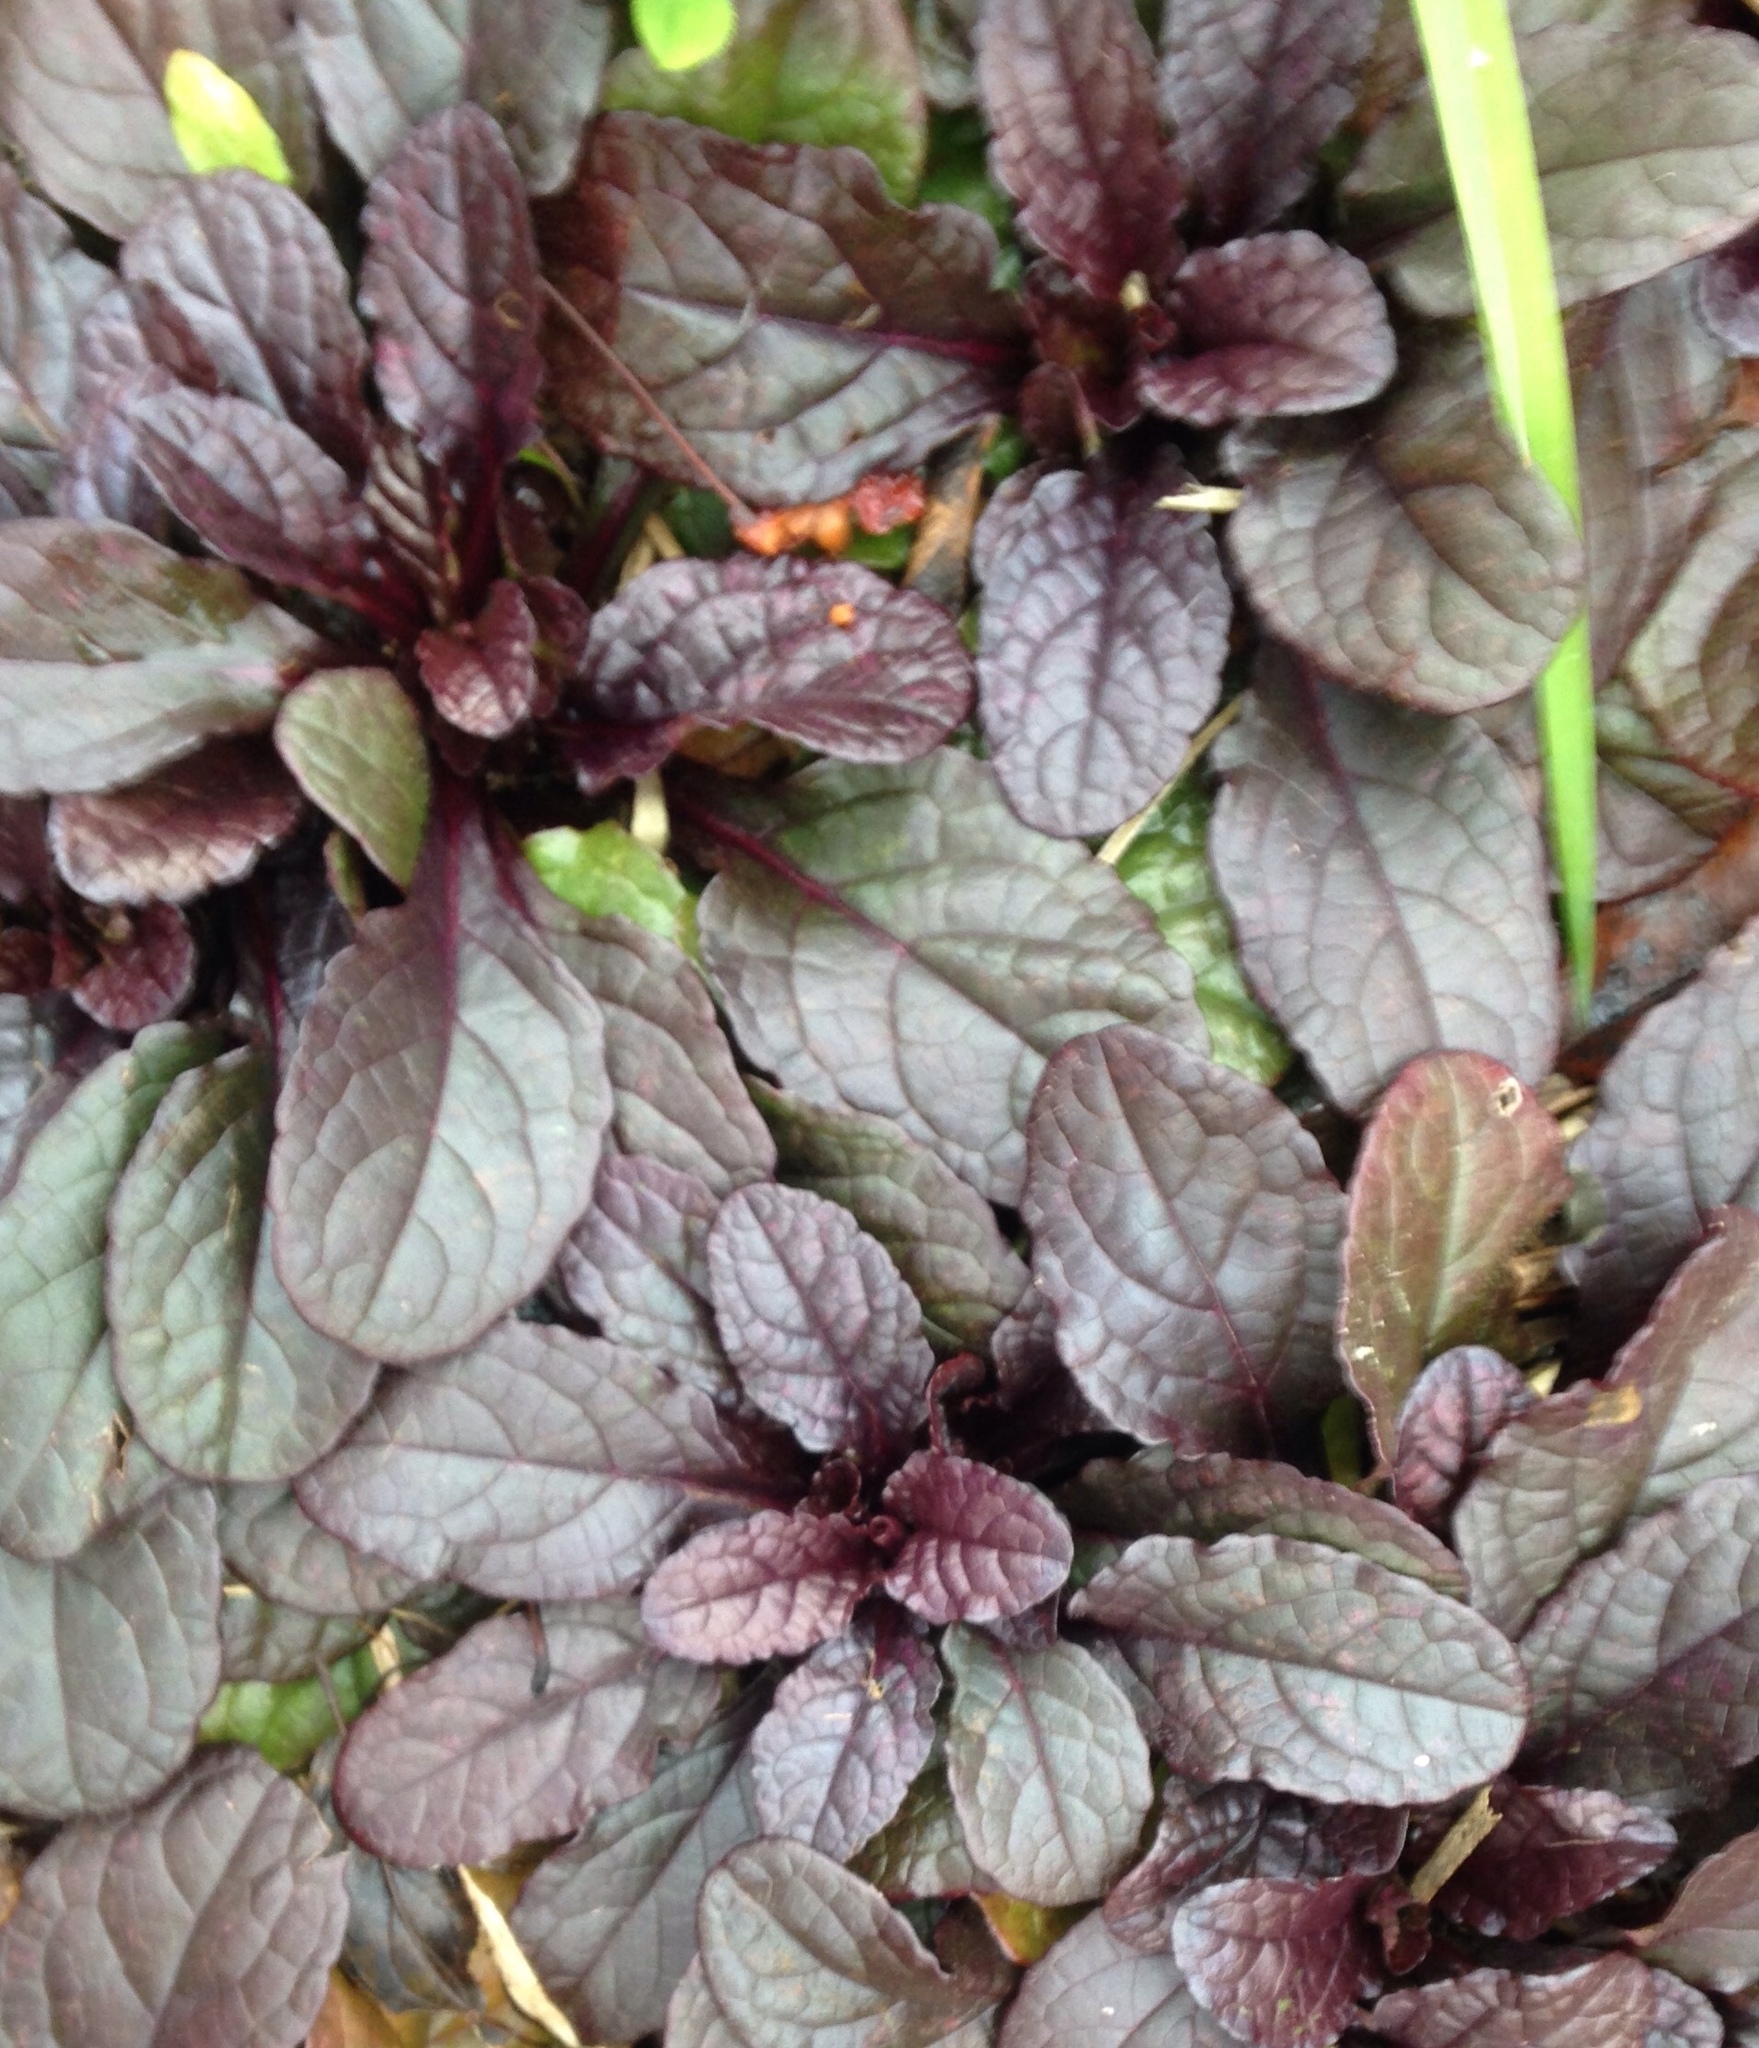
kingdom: Plantae
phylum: Tracheophyta
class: Magnoliopsida
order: Lamiales
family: Lamiaceae
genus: Ajuga
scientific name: Ajuga reptans
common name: Bugle
